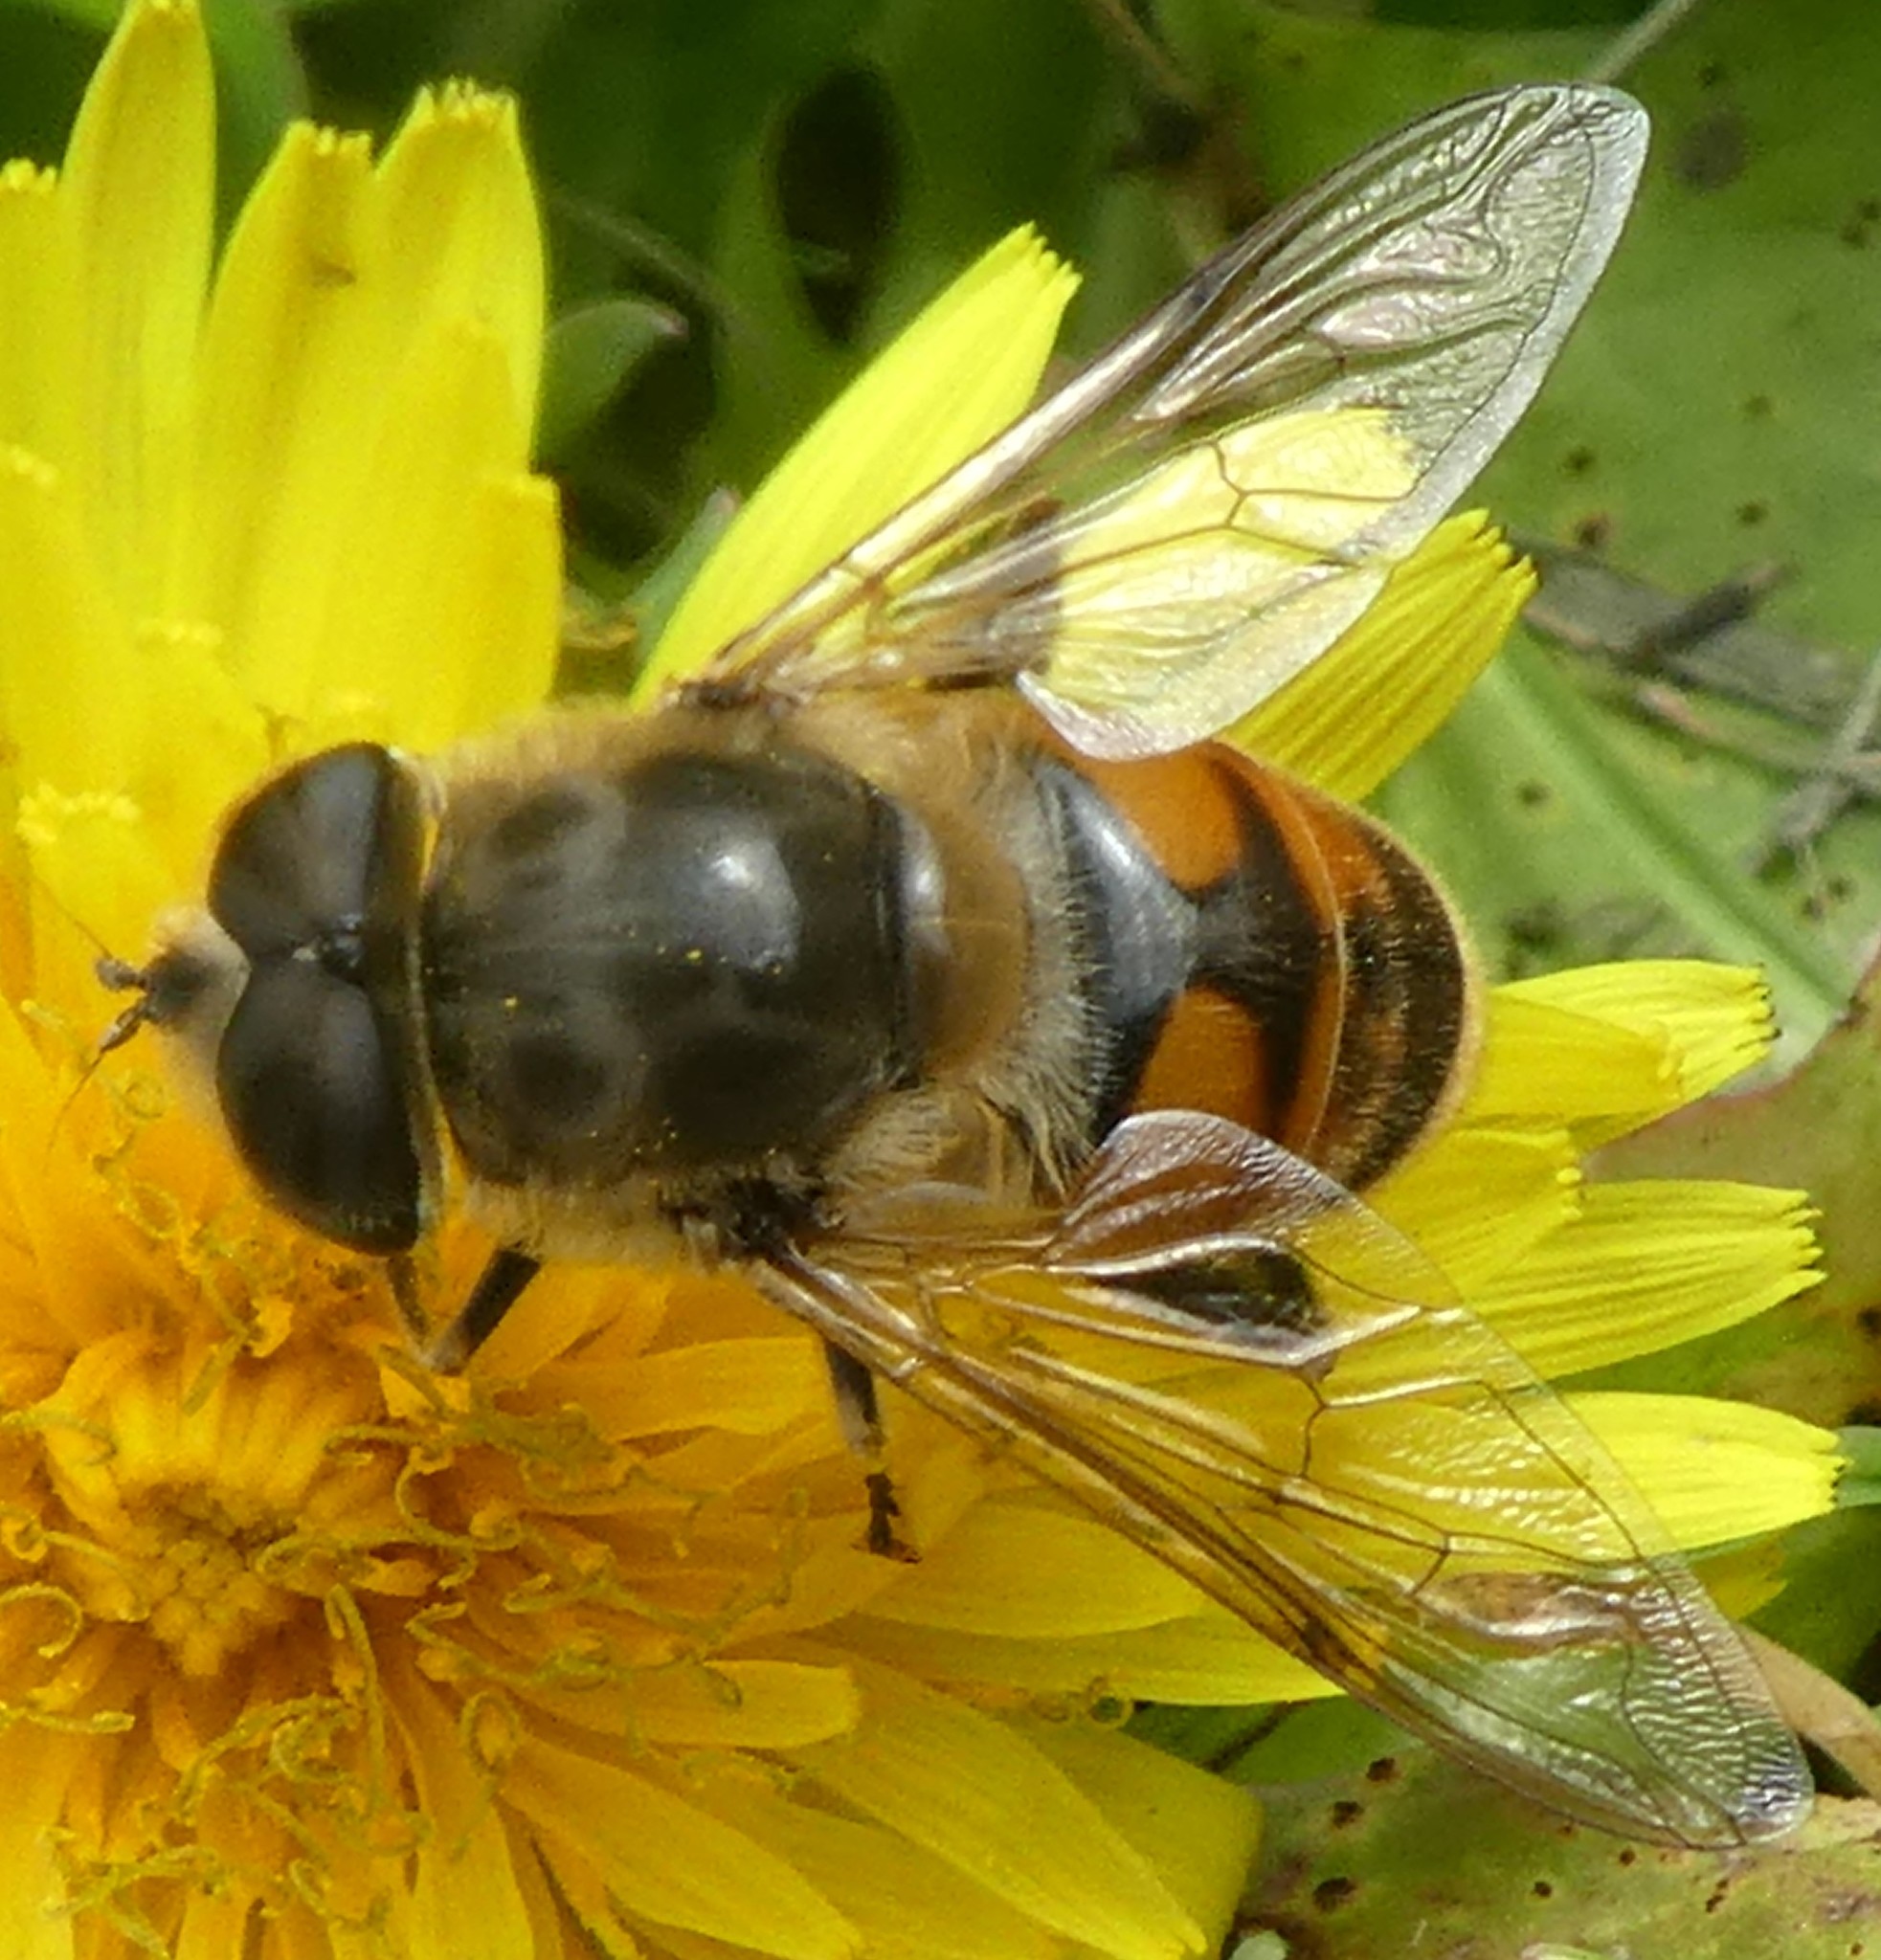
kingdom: Animalia
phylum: Arthropoda
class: Insecta
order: Diptera
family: Syrphidae
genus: Eristalis
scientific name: Eristalis tenax
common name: Drone fly
